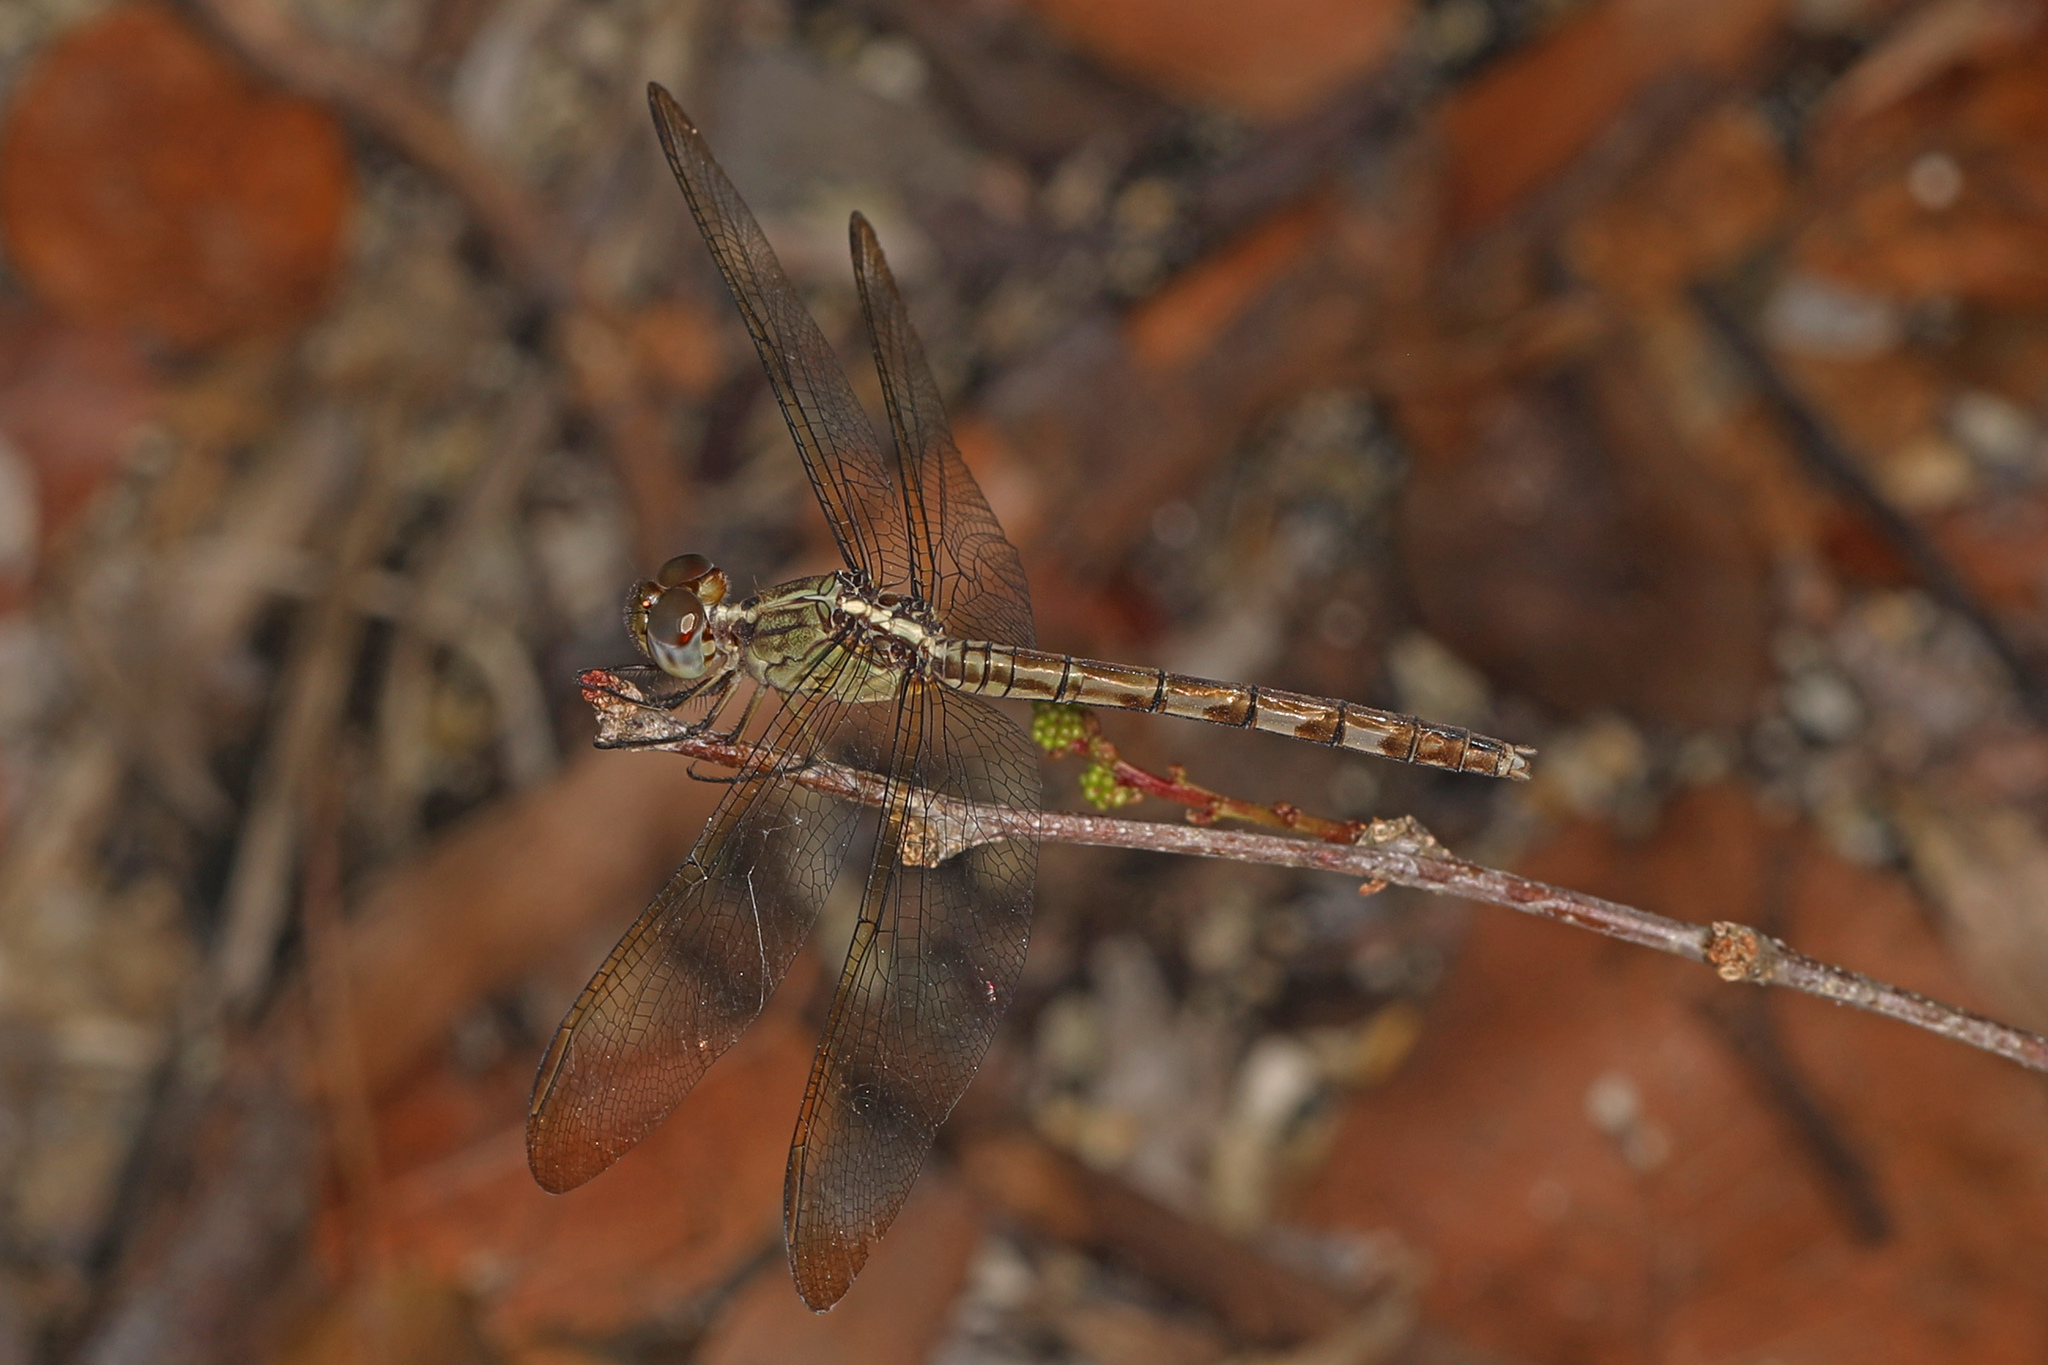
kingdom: Animalia
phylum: Arthropoda
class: Insecta
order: Odonata
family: Libellulidae
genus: Erythrodiplax
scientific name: Erythrodiplax umbrata
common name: Band-winged dragonlet
